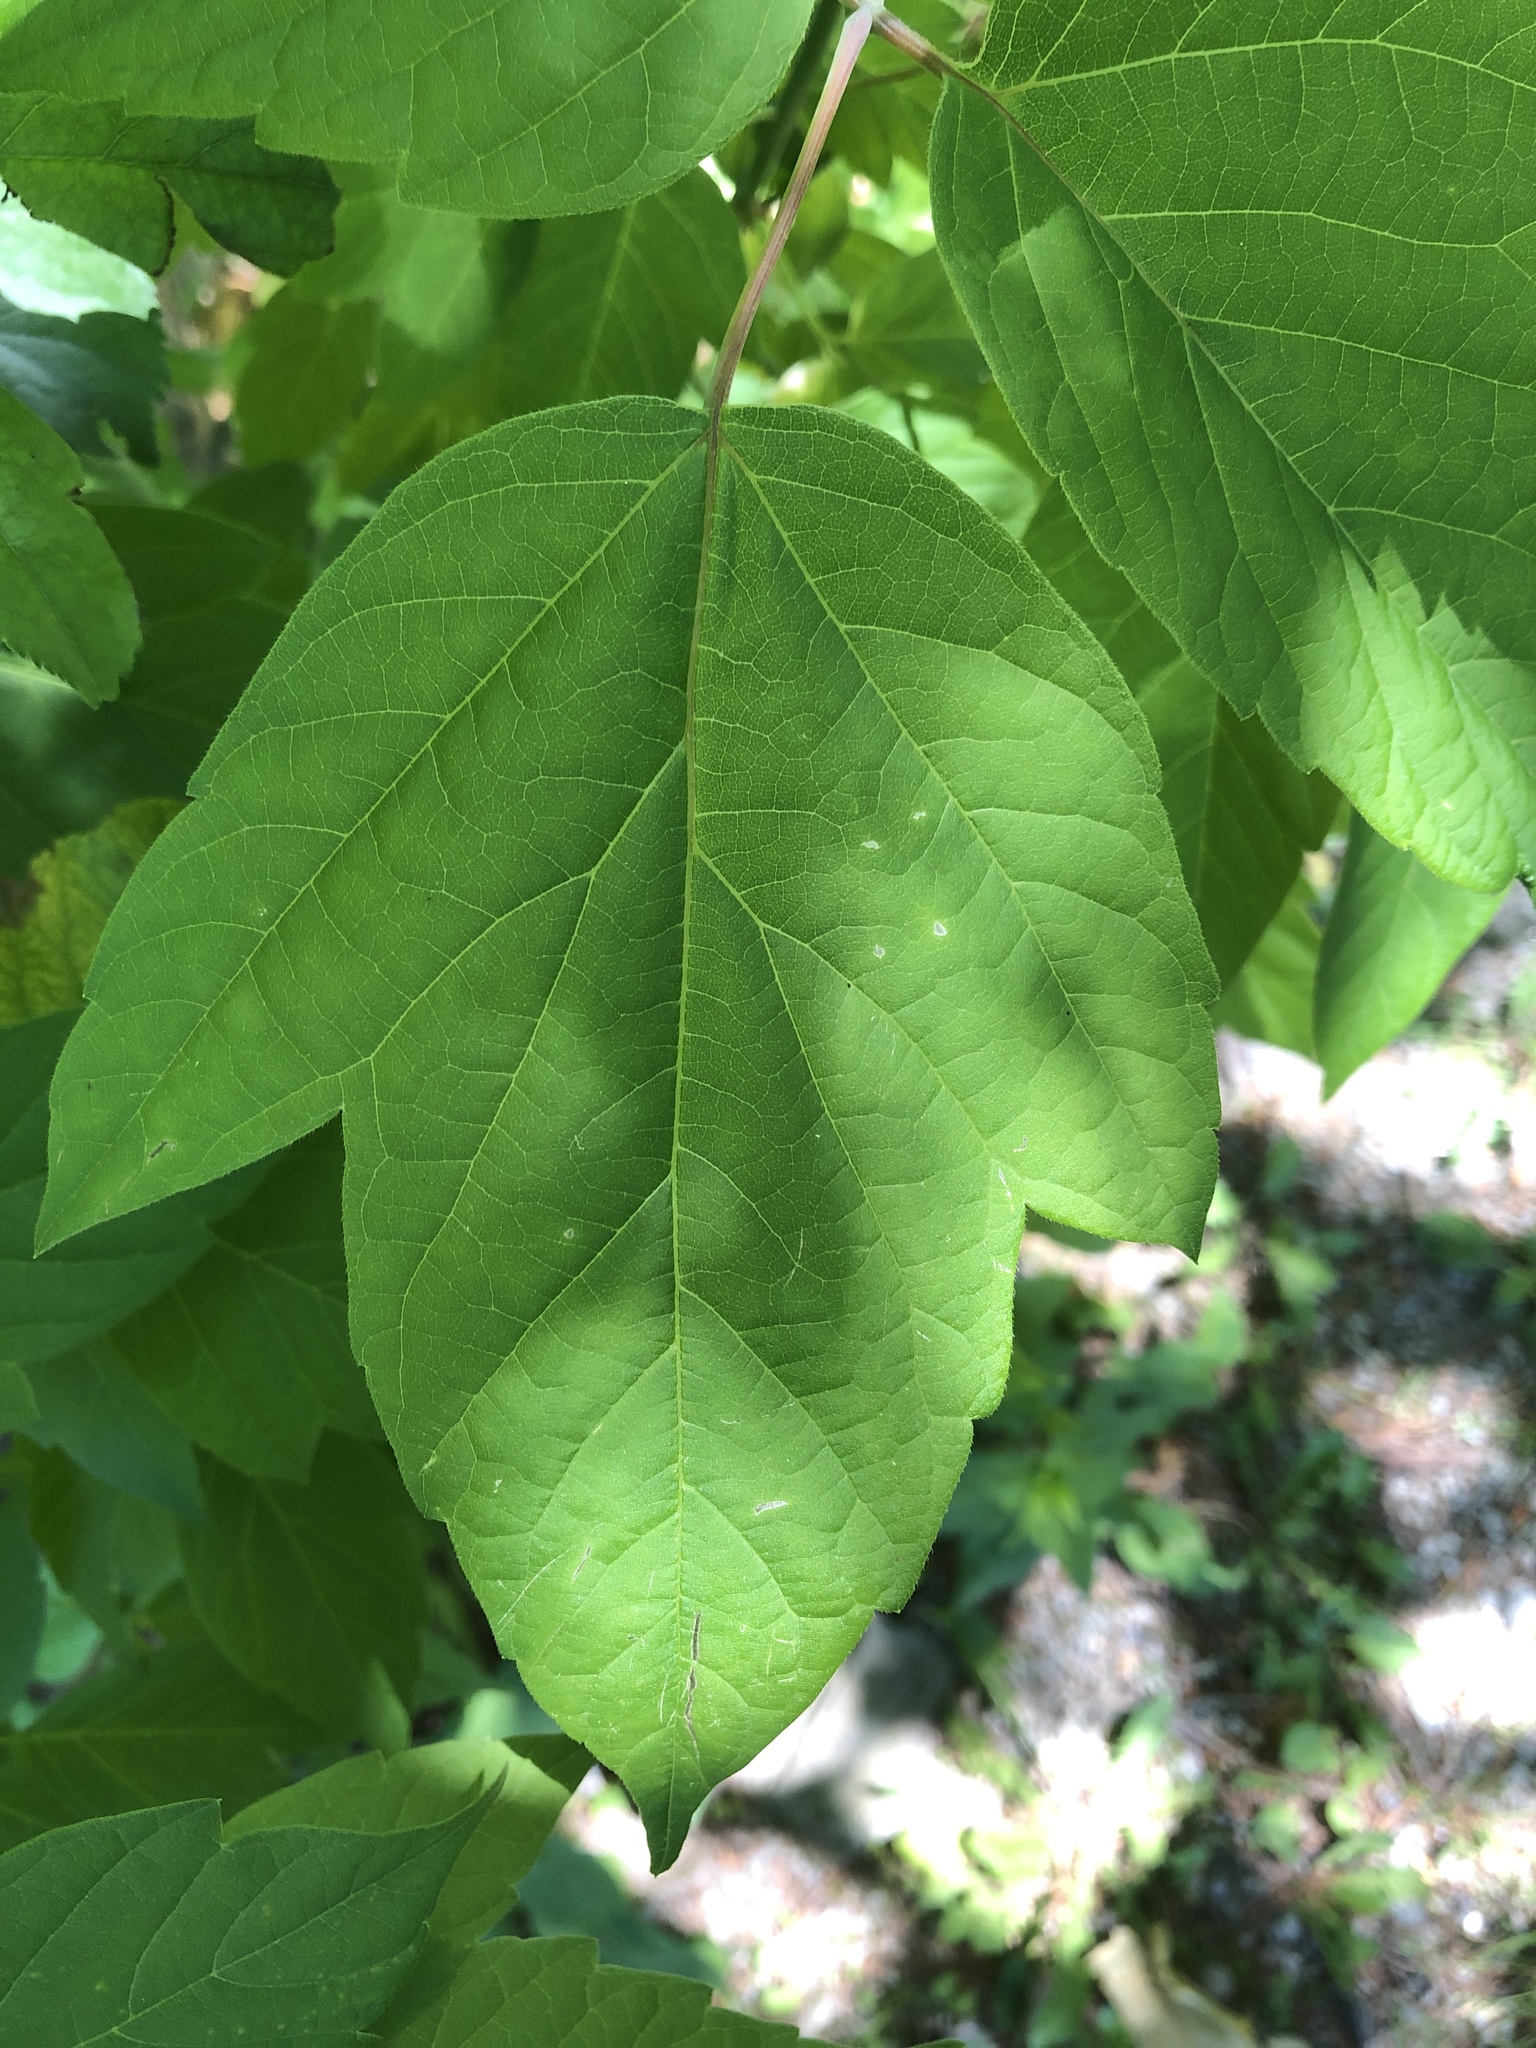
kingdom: Plantae
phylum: Tracheophyta
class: Magnoliopsida
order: Sapindales
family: Sapindaceae
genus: Acer
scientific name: Acer negundo
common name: Ashleaf maple
